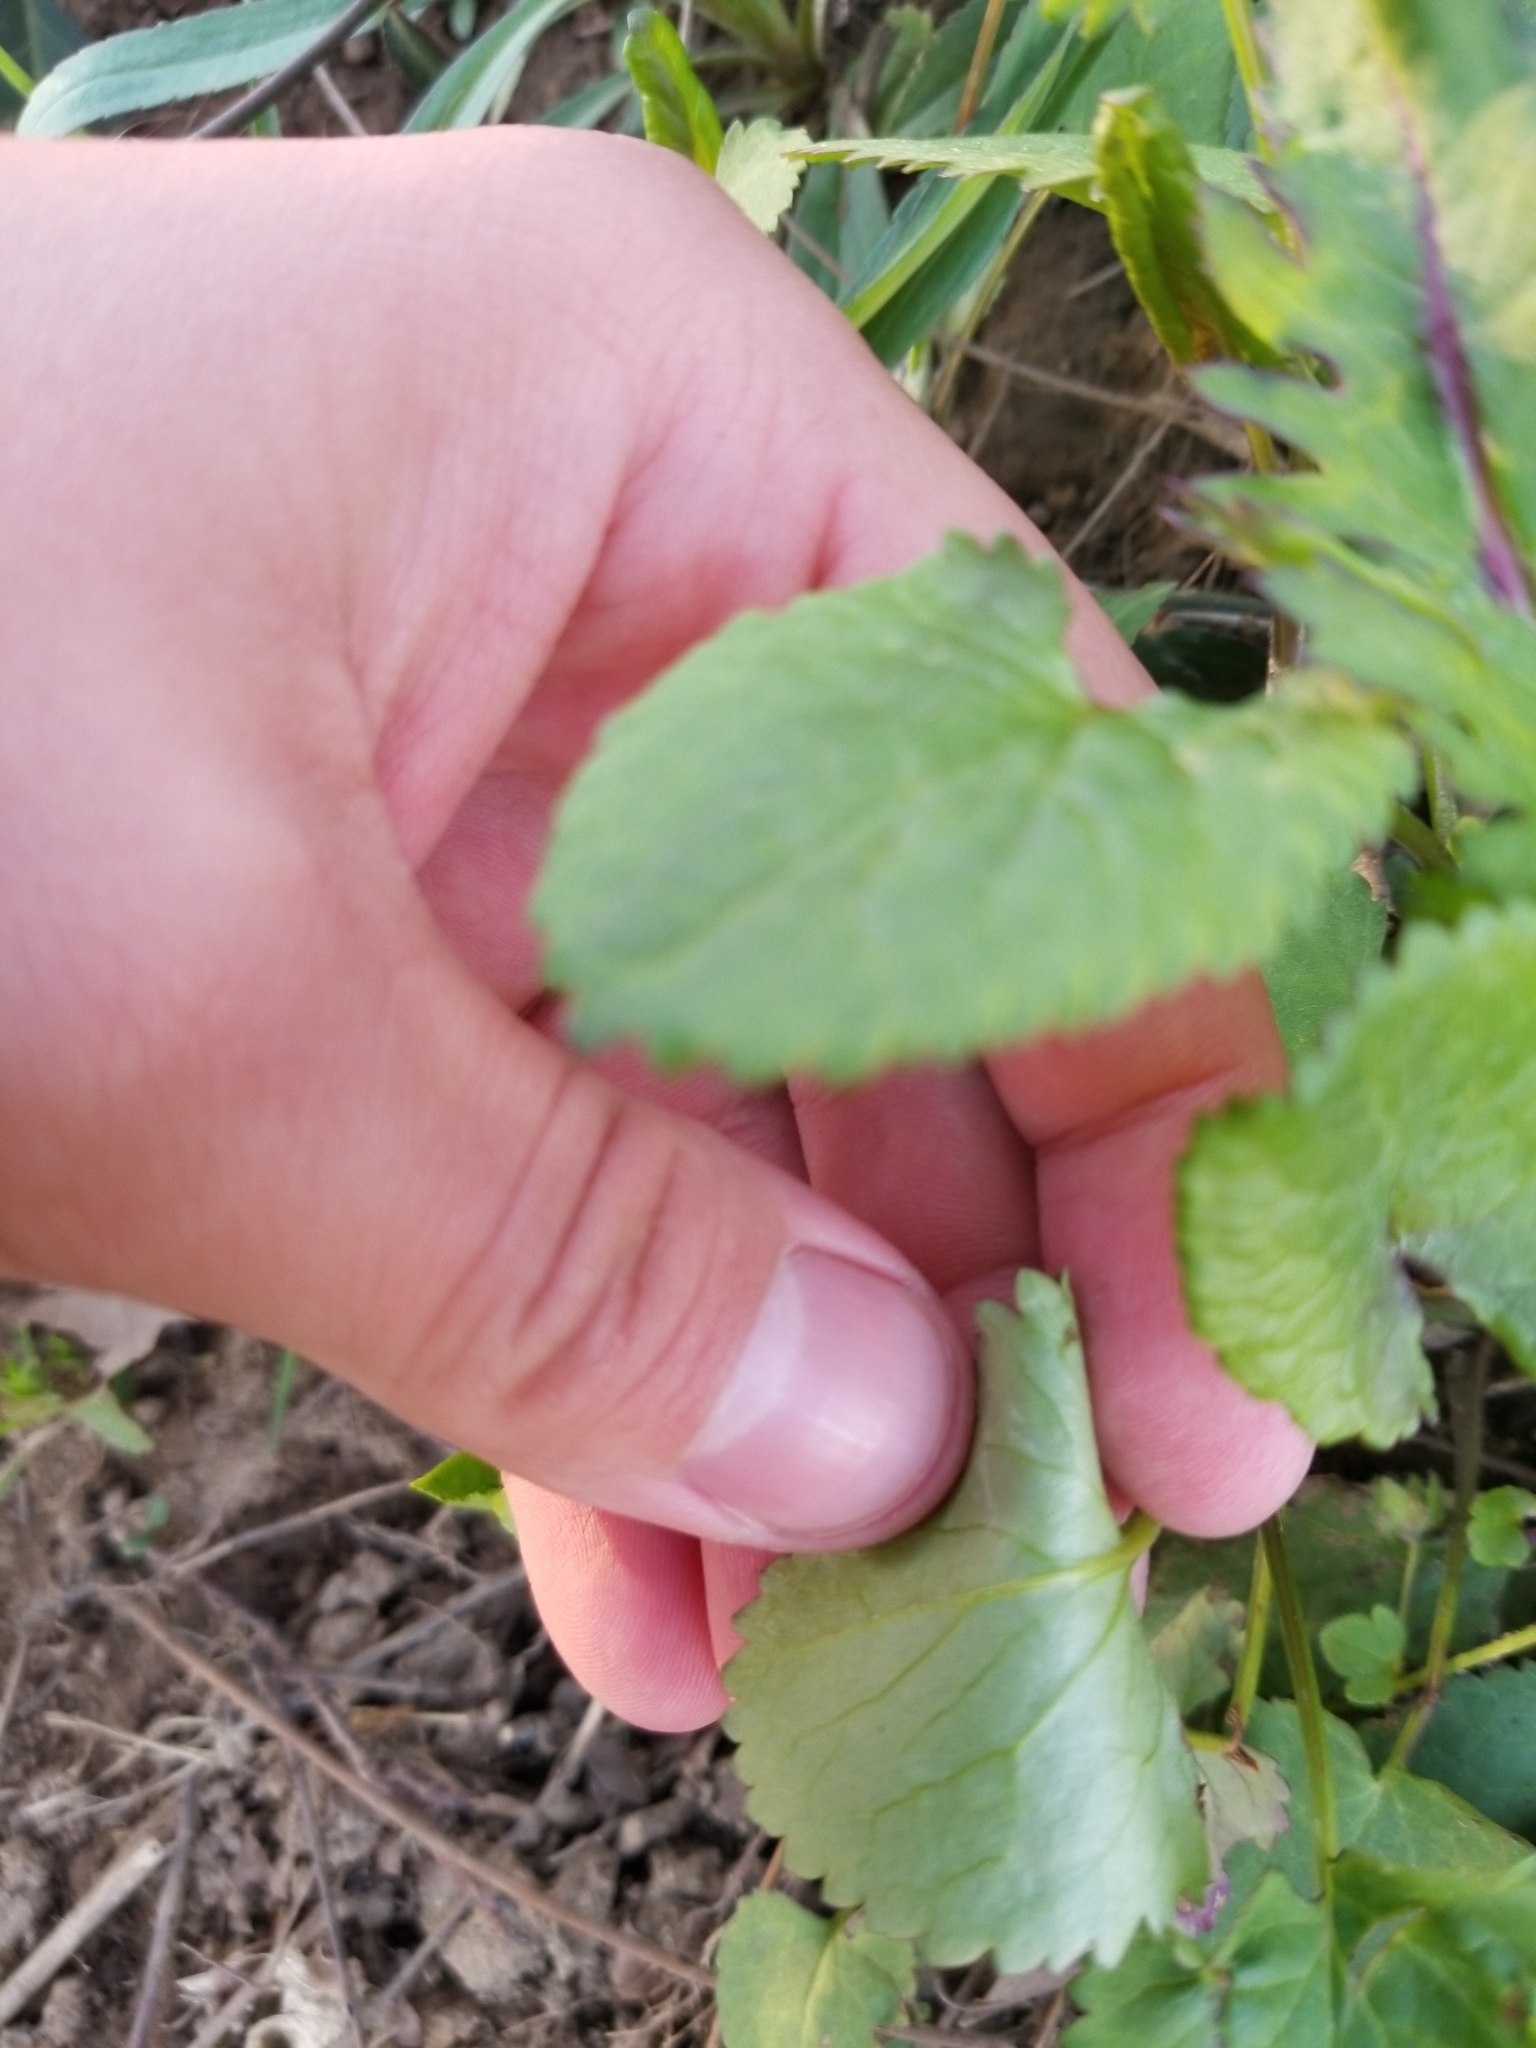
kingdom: Plantae
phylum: Tracheophyta
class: Magnoliopsida
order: Asterales
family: Asteraceae
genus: Packera
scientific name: Packera aurea
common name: Golden groundsel
